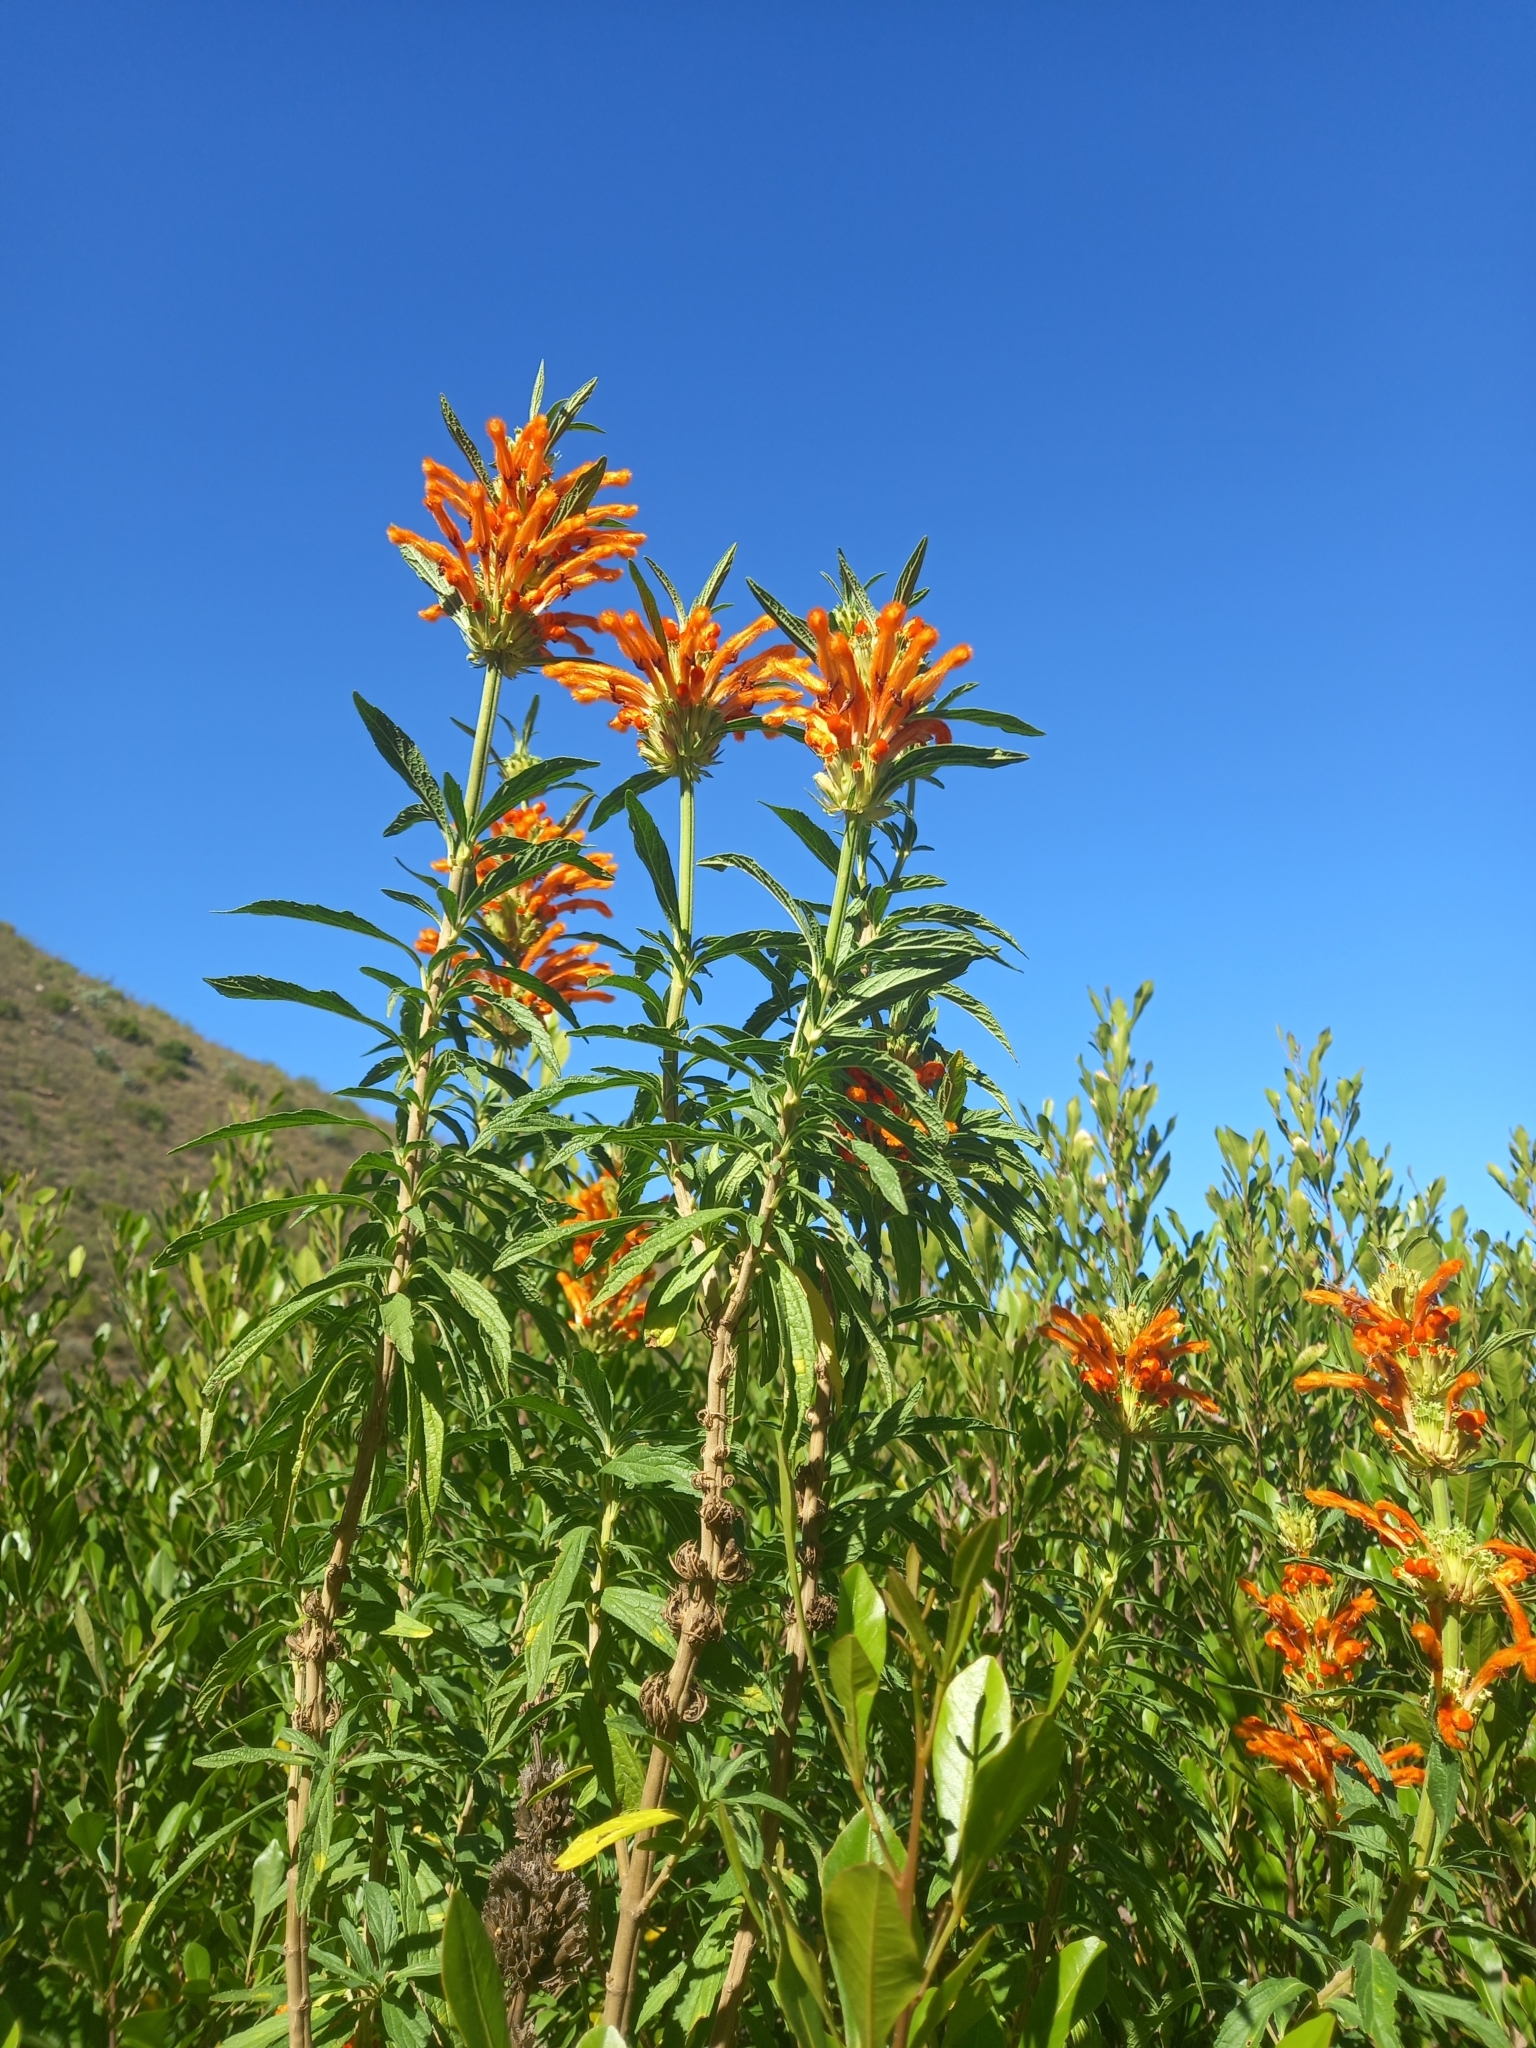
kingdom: Plantae
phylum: Tracheophyta
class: Magnoliopsida
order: Lamiales
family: Lamiaceae
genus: Leonotis
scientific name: Leonotis leonurus
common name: Lion's ear
